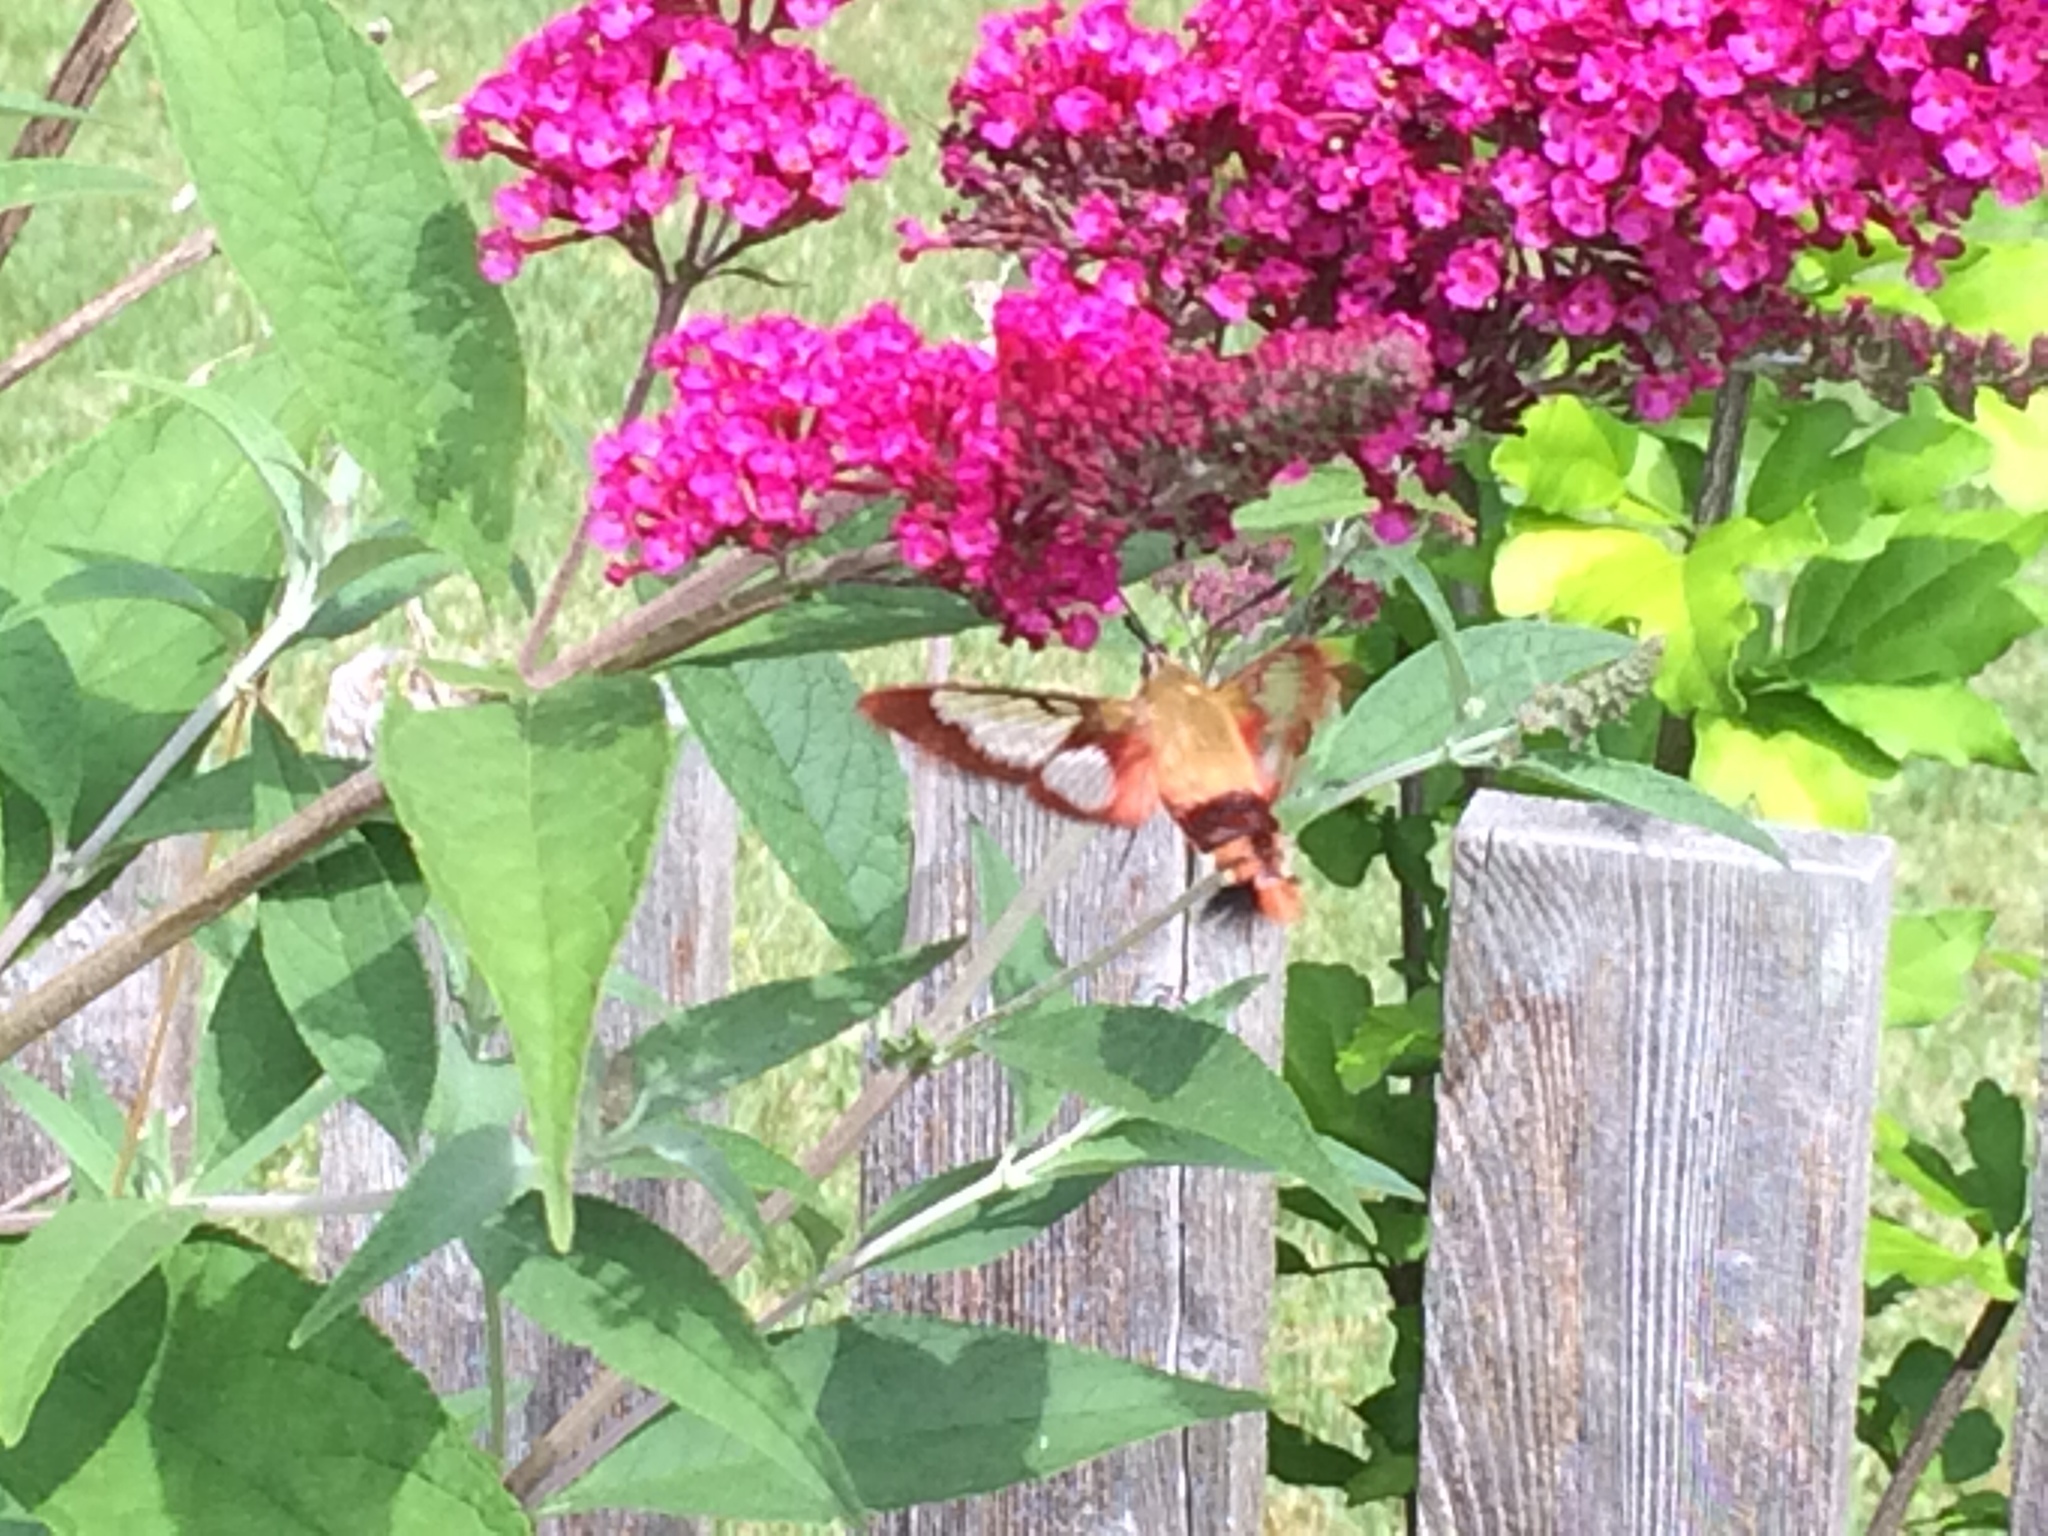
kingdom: Animalia
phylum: Arthropoda
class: Insecta
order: Lepidoptera
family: Sphingidae
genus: Hemaris
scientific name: Hemaris thysbe
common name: Common clear-wing
